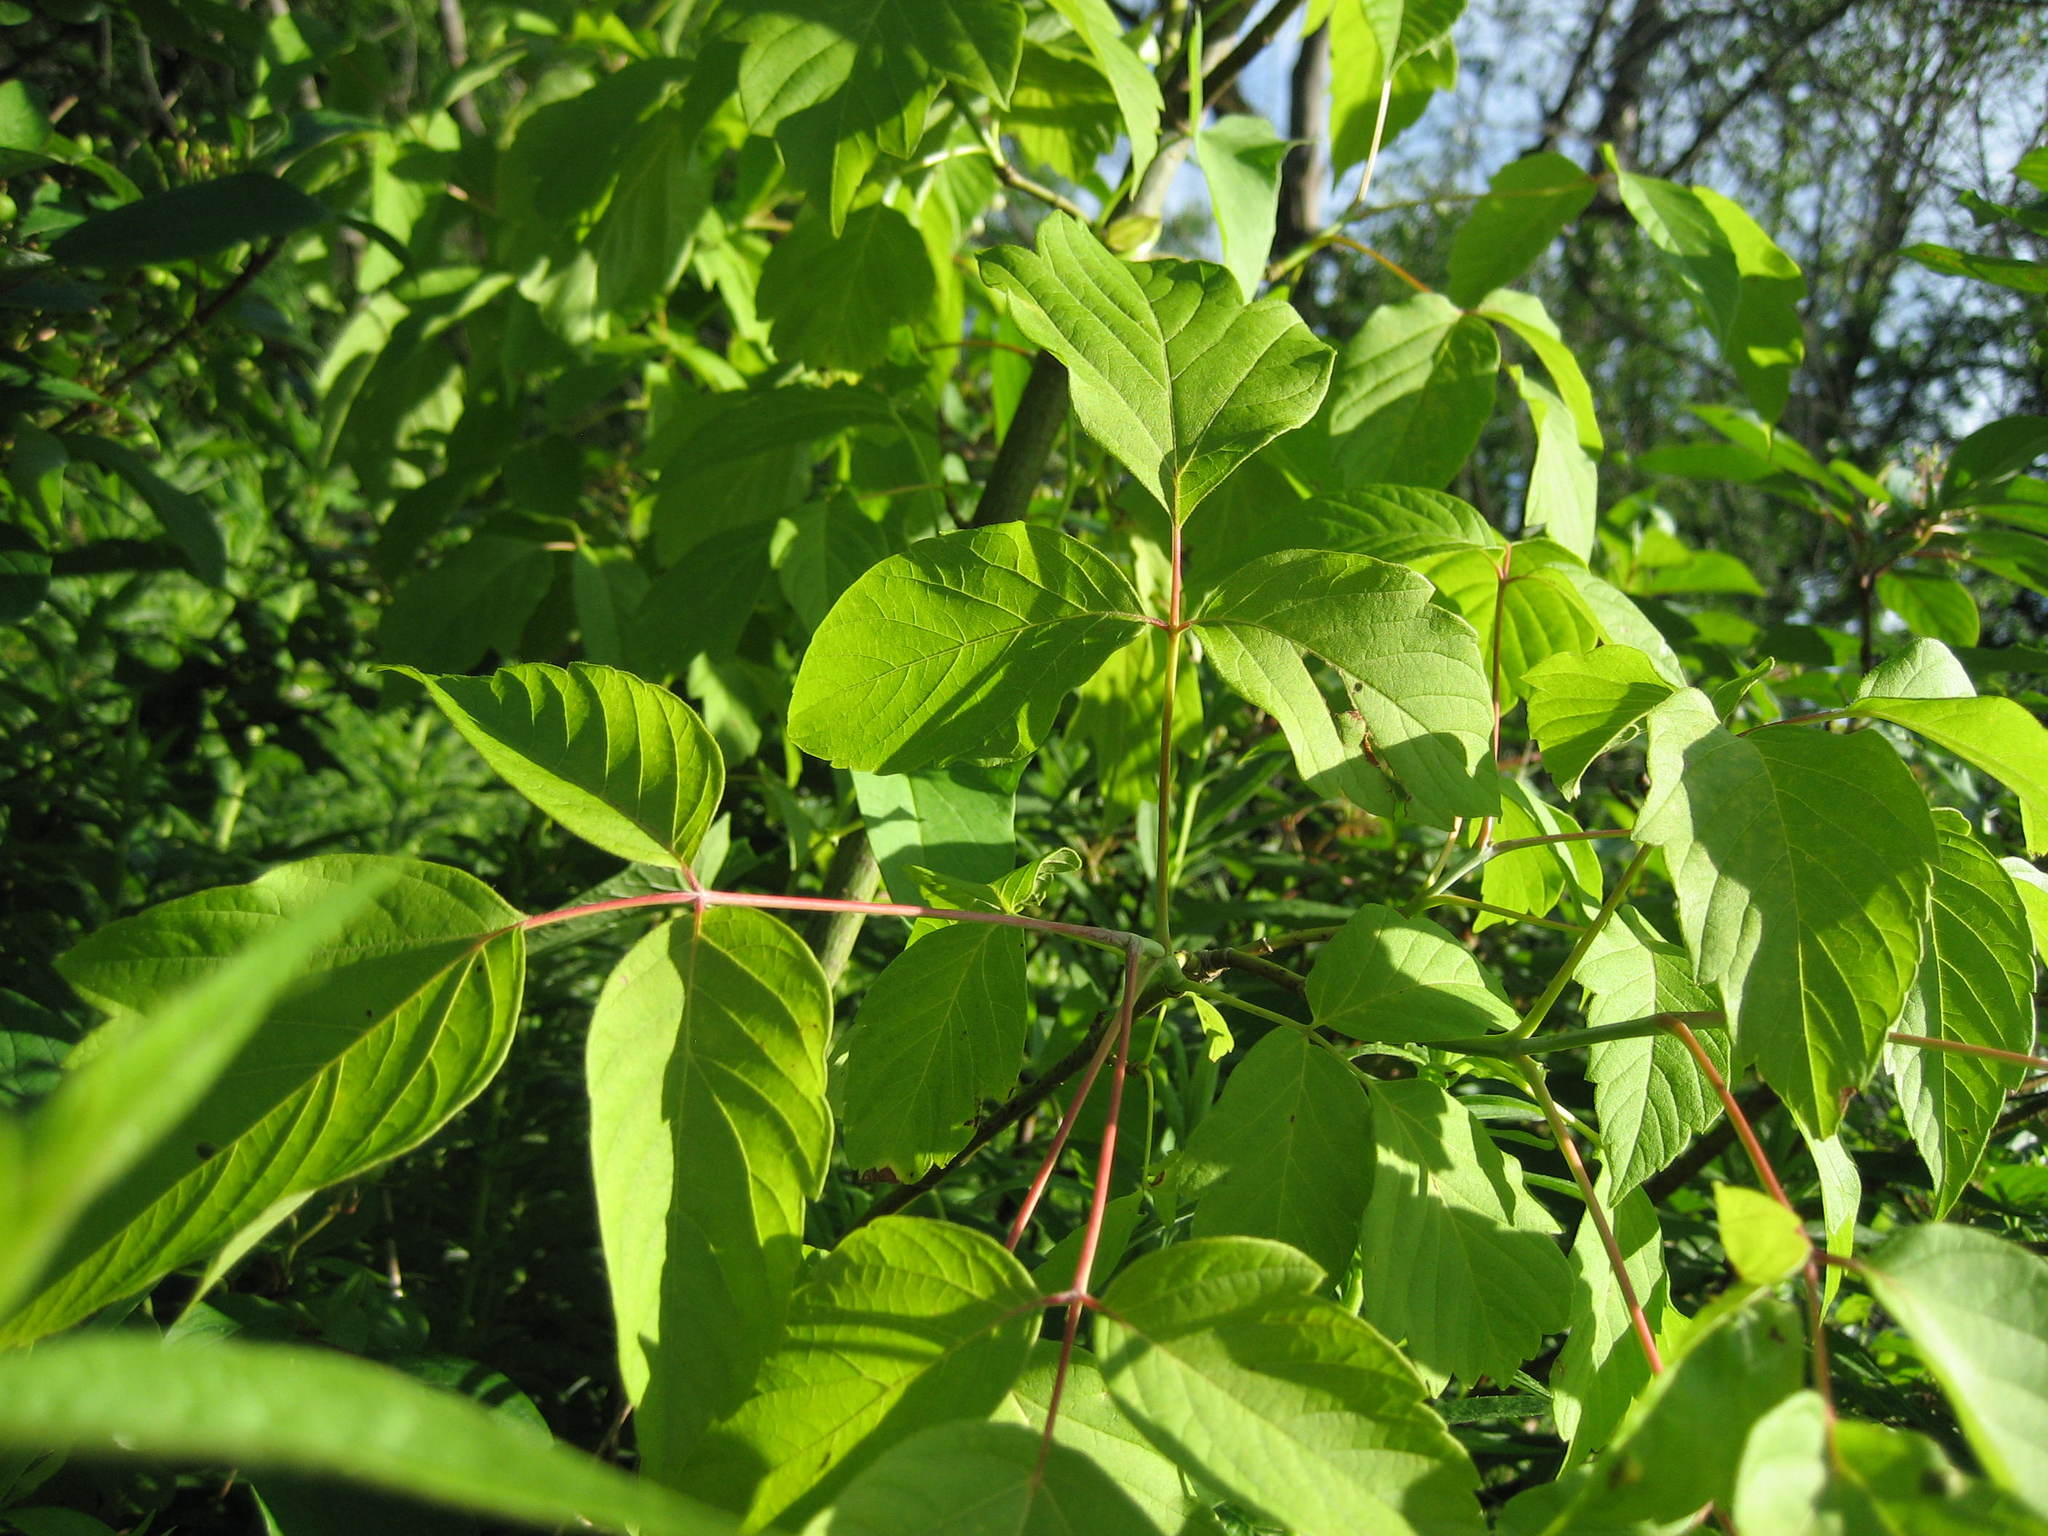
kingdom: Plantae
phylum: Tracheophyta
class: Magnoliopsida
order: Sapindales
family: Sapindaceae
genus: Acer
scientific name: Acer negundo
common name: Ashleaf maple
